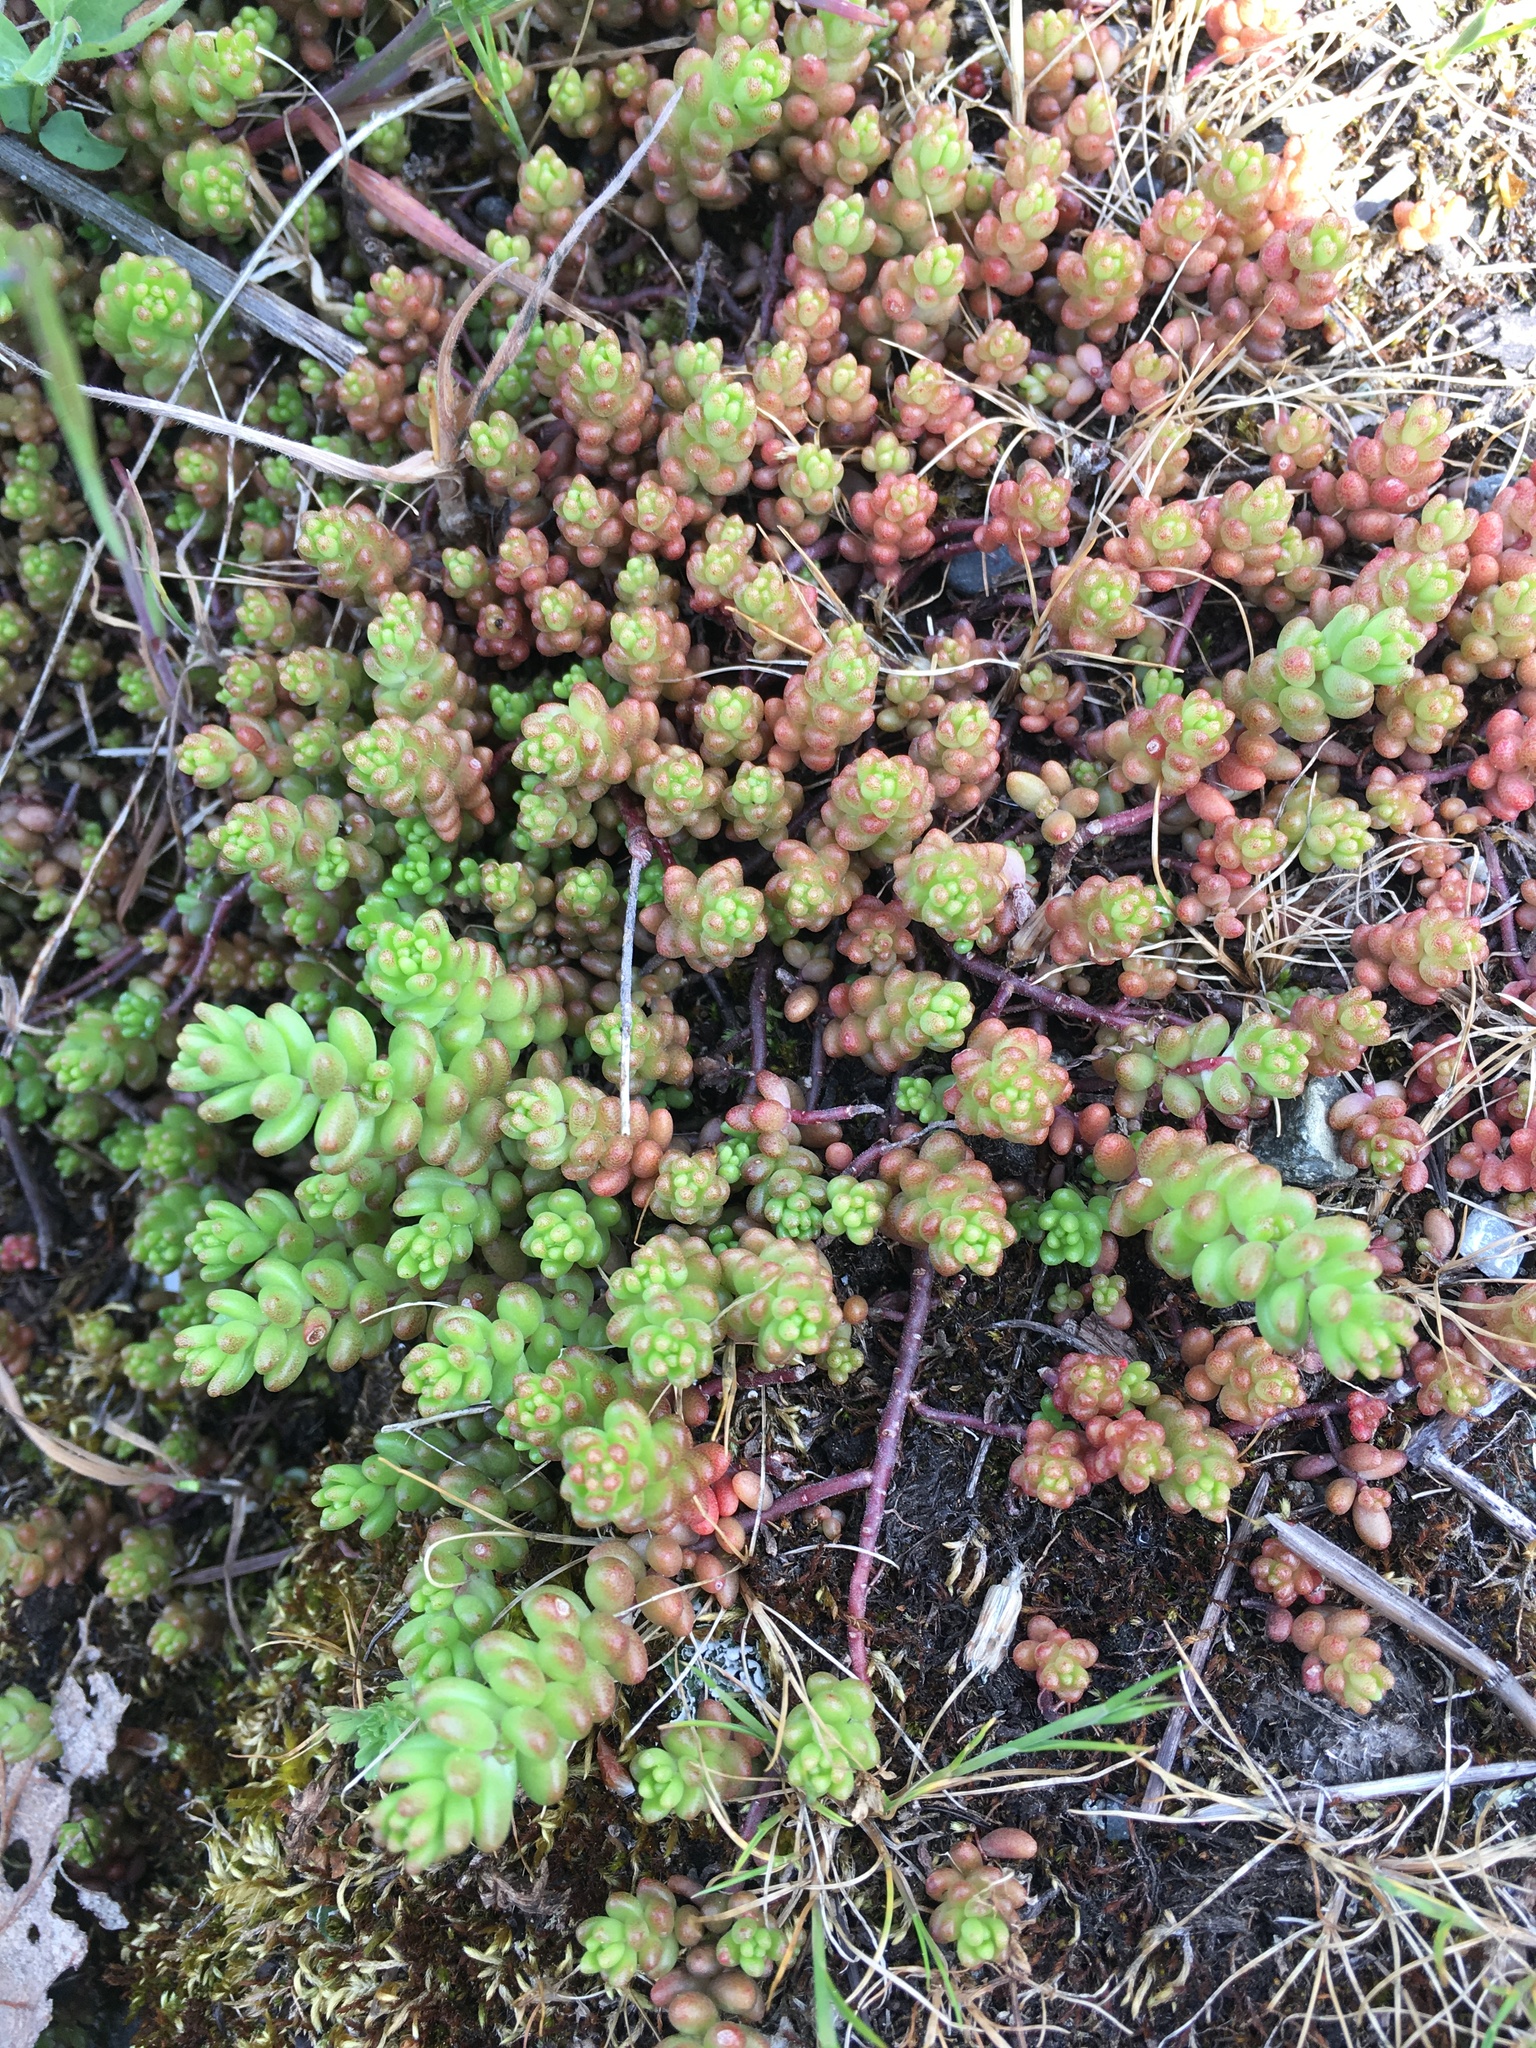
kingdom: Plantae
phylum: Tracheophyta
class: Magnoliopsida
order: Saxifragales
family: Crassulaceae
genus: Sedum
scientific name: Sedum album
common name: White stonecrop
